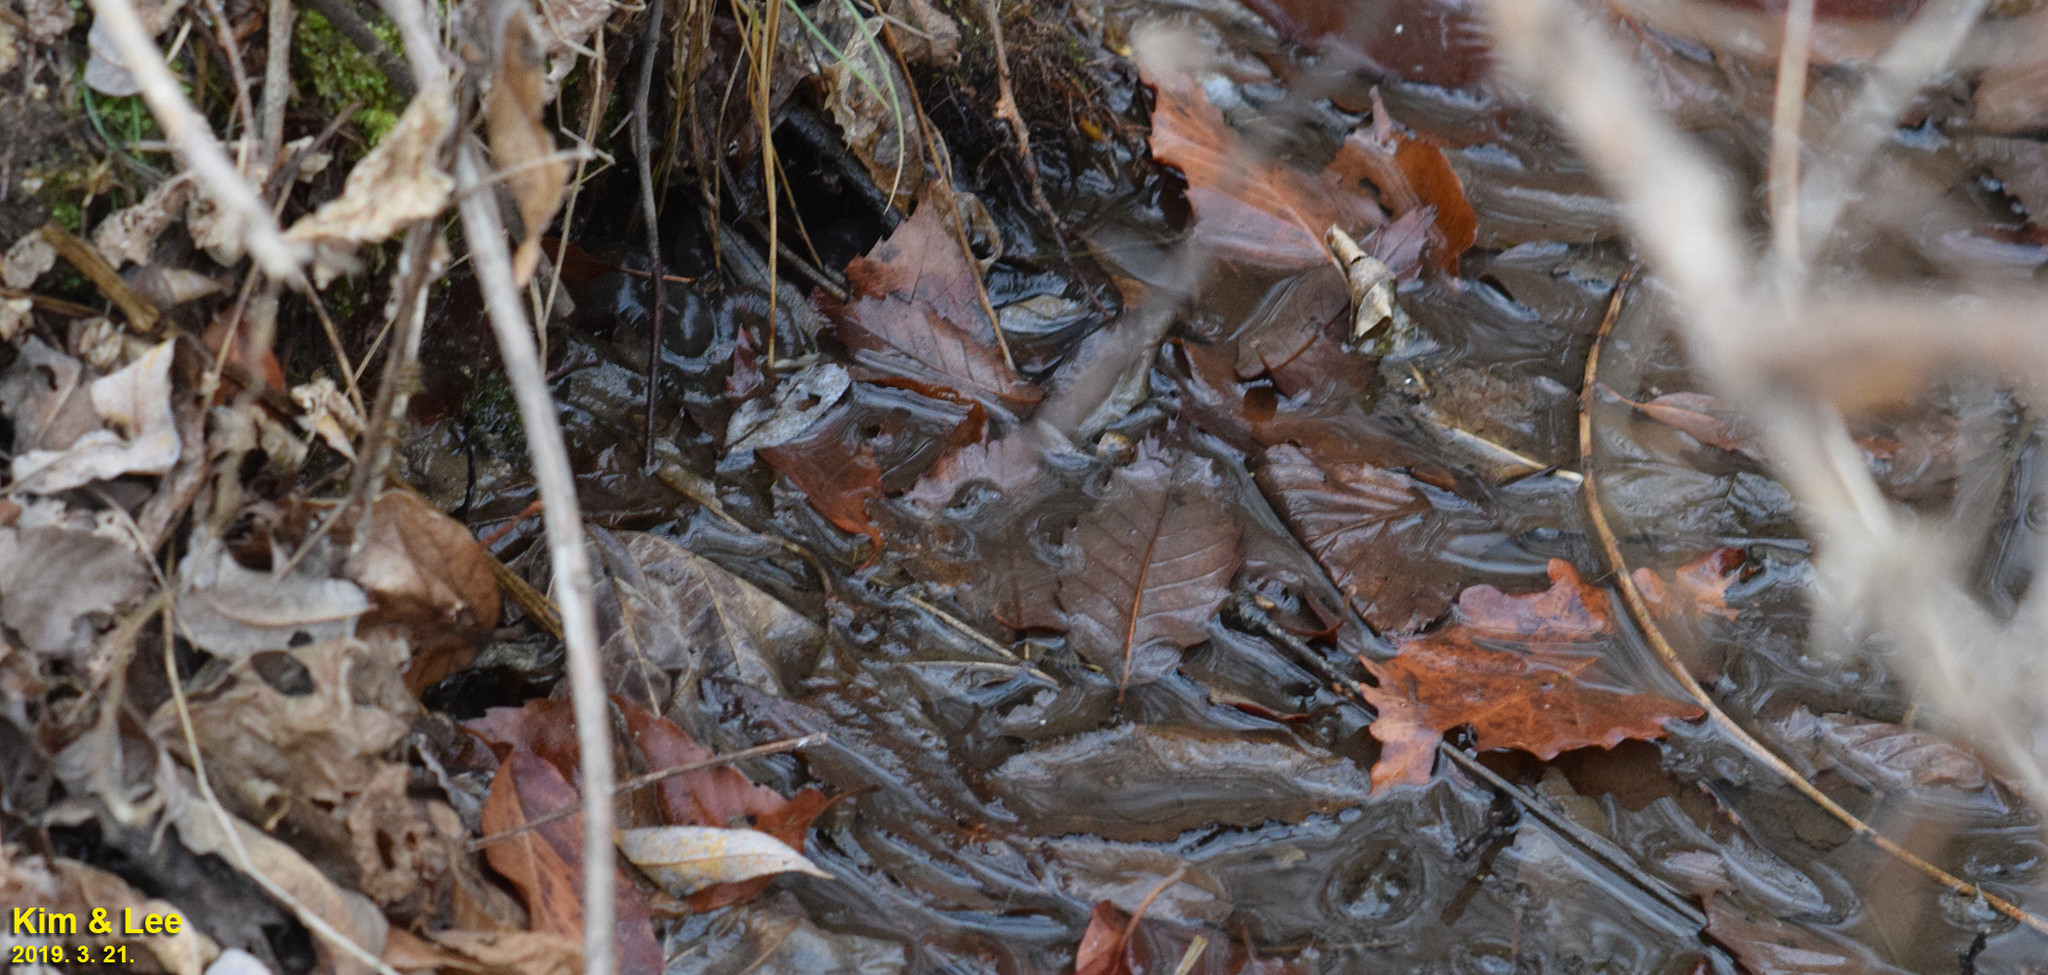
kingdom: Animalia
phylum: Chordata
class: Amphibia
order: Caudata
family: Hynobiidae
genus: Hynobius
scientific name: Hynobius leechii
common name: Gensan salamander
